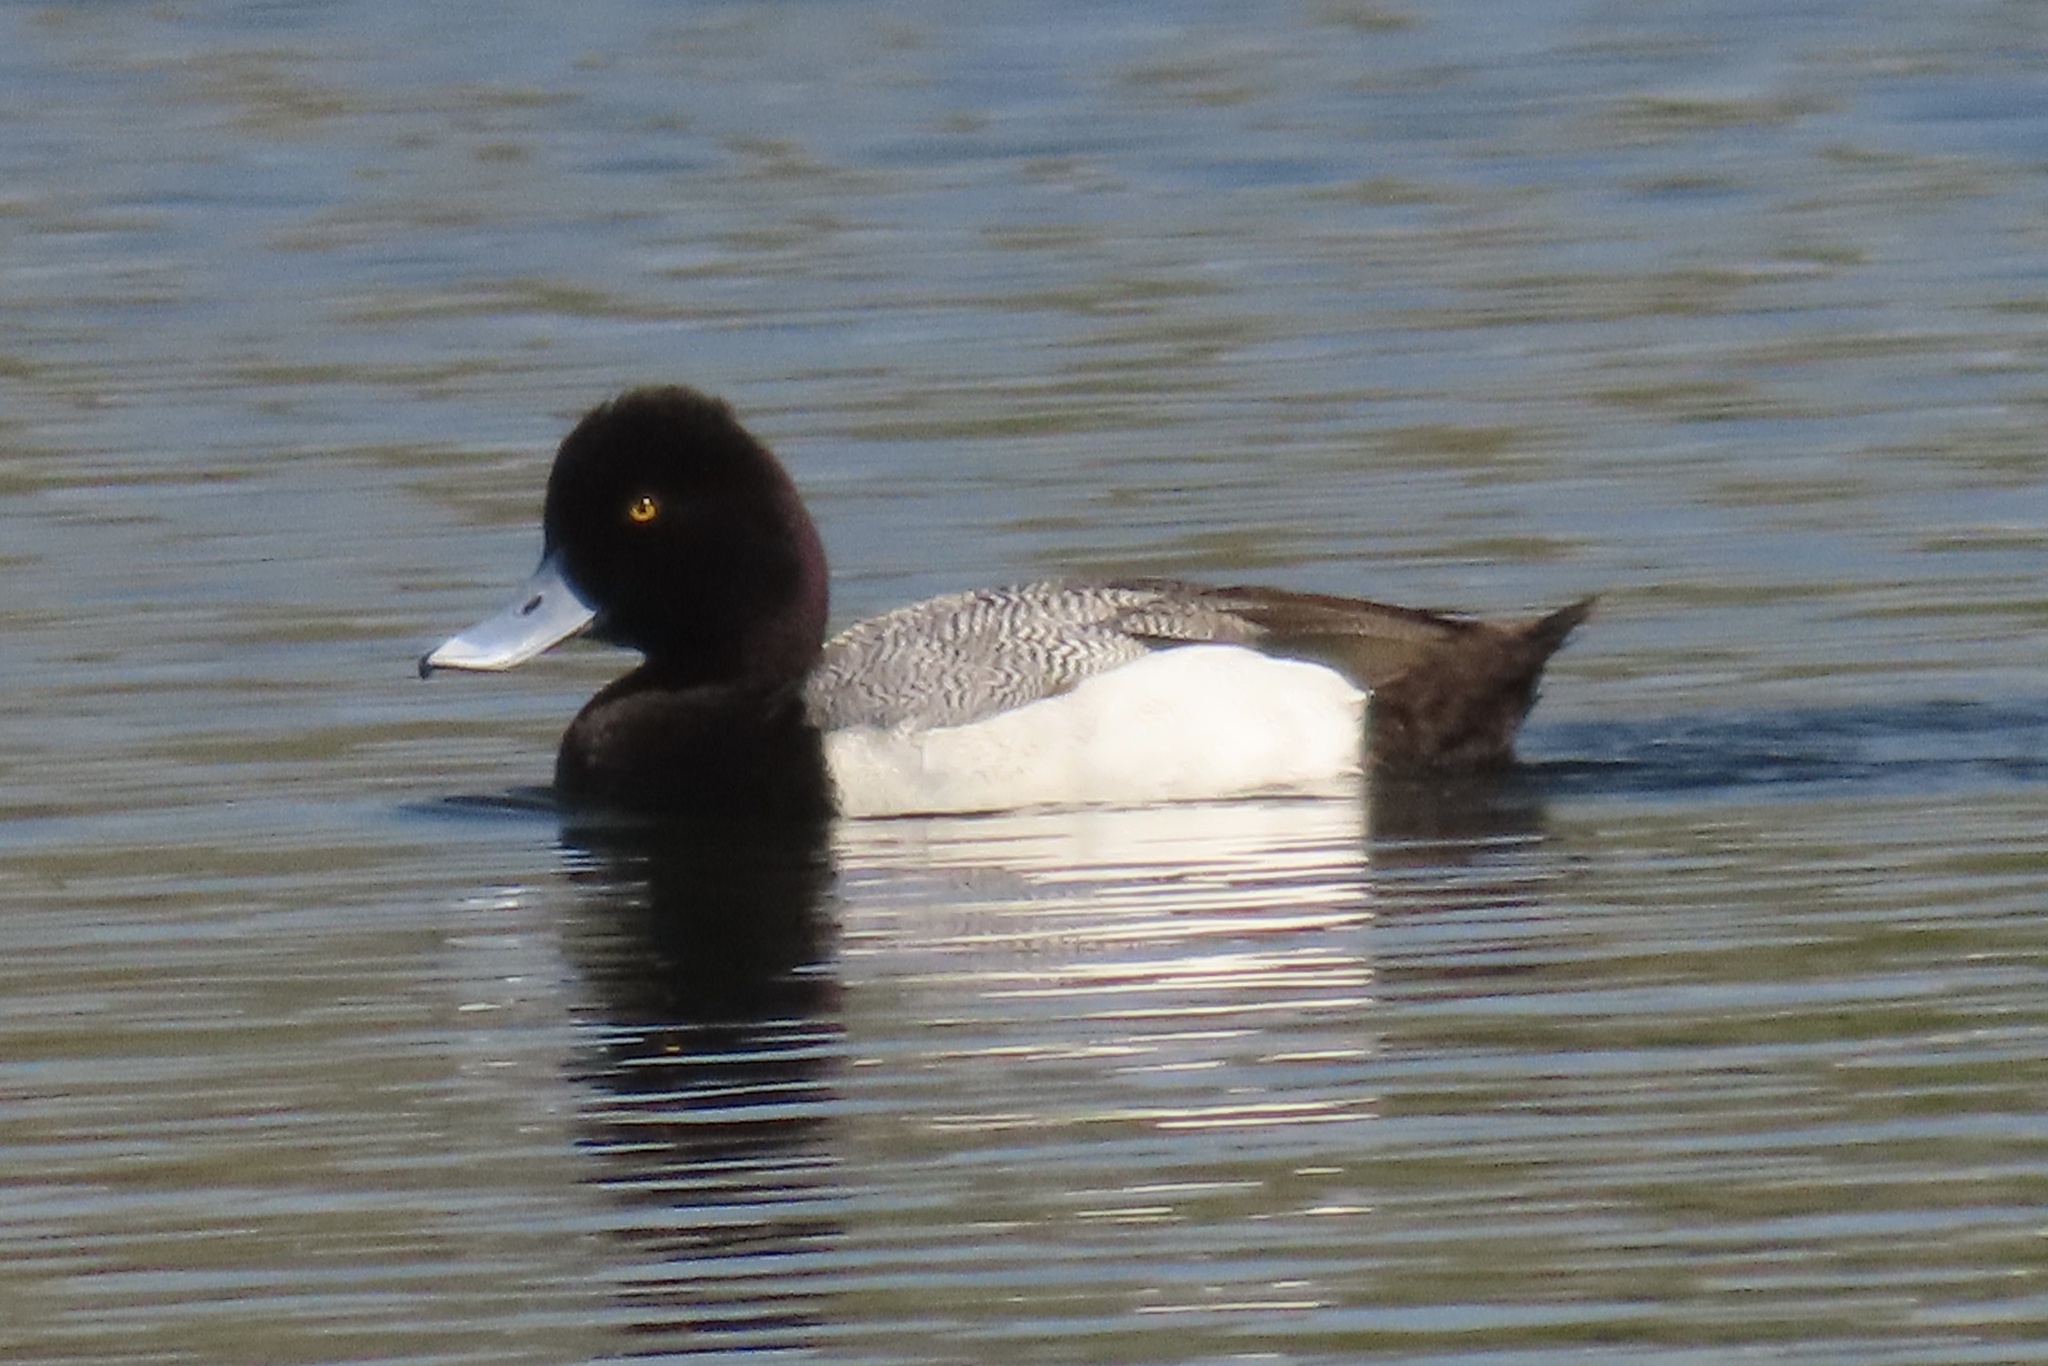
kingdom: Animalia
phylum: Chordata
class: Aves
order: Anseriformes
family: Anatidae
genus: Aythya
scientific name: Aythya affinis
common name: Lesser scaup
